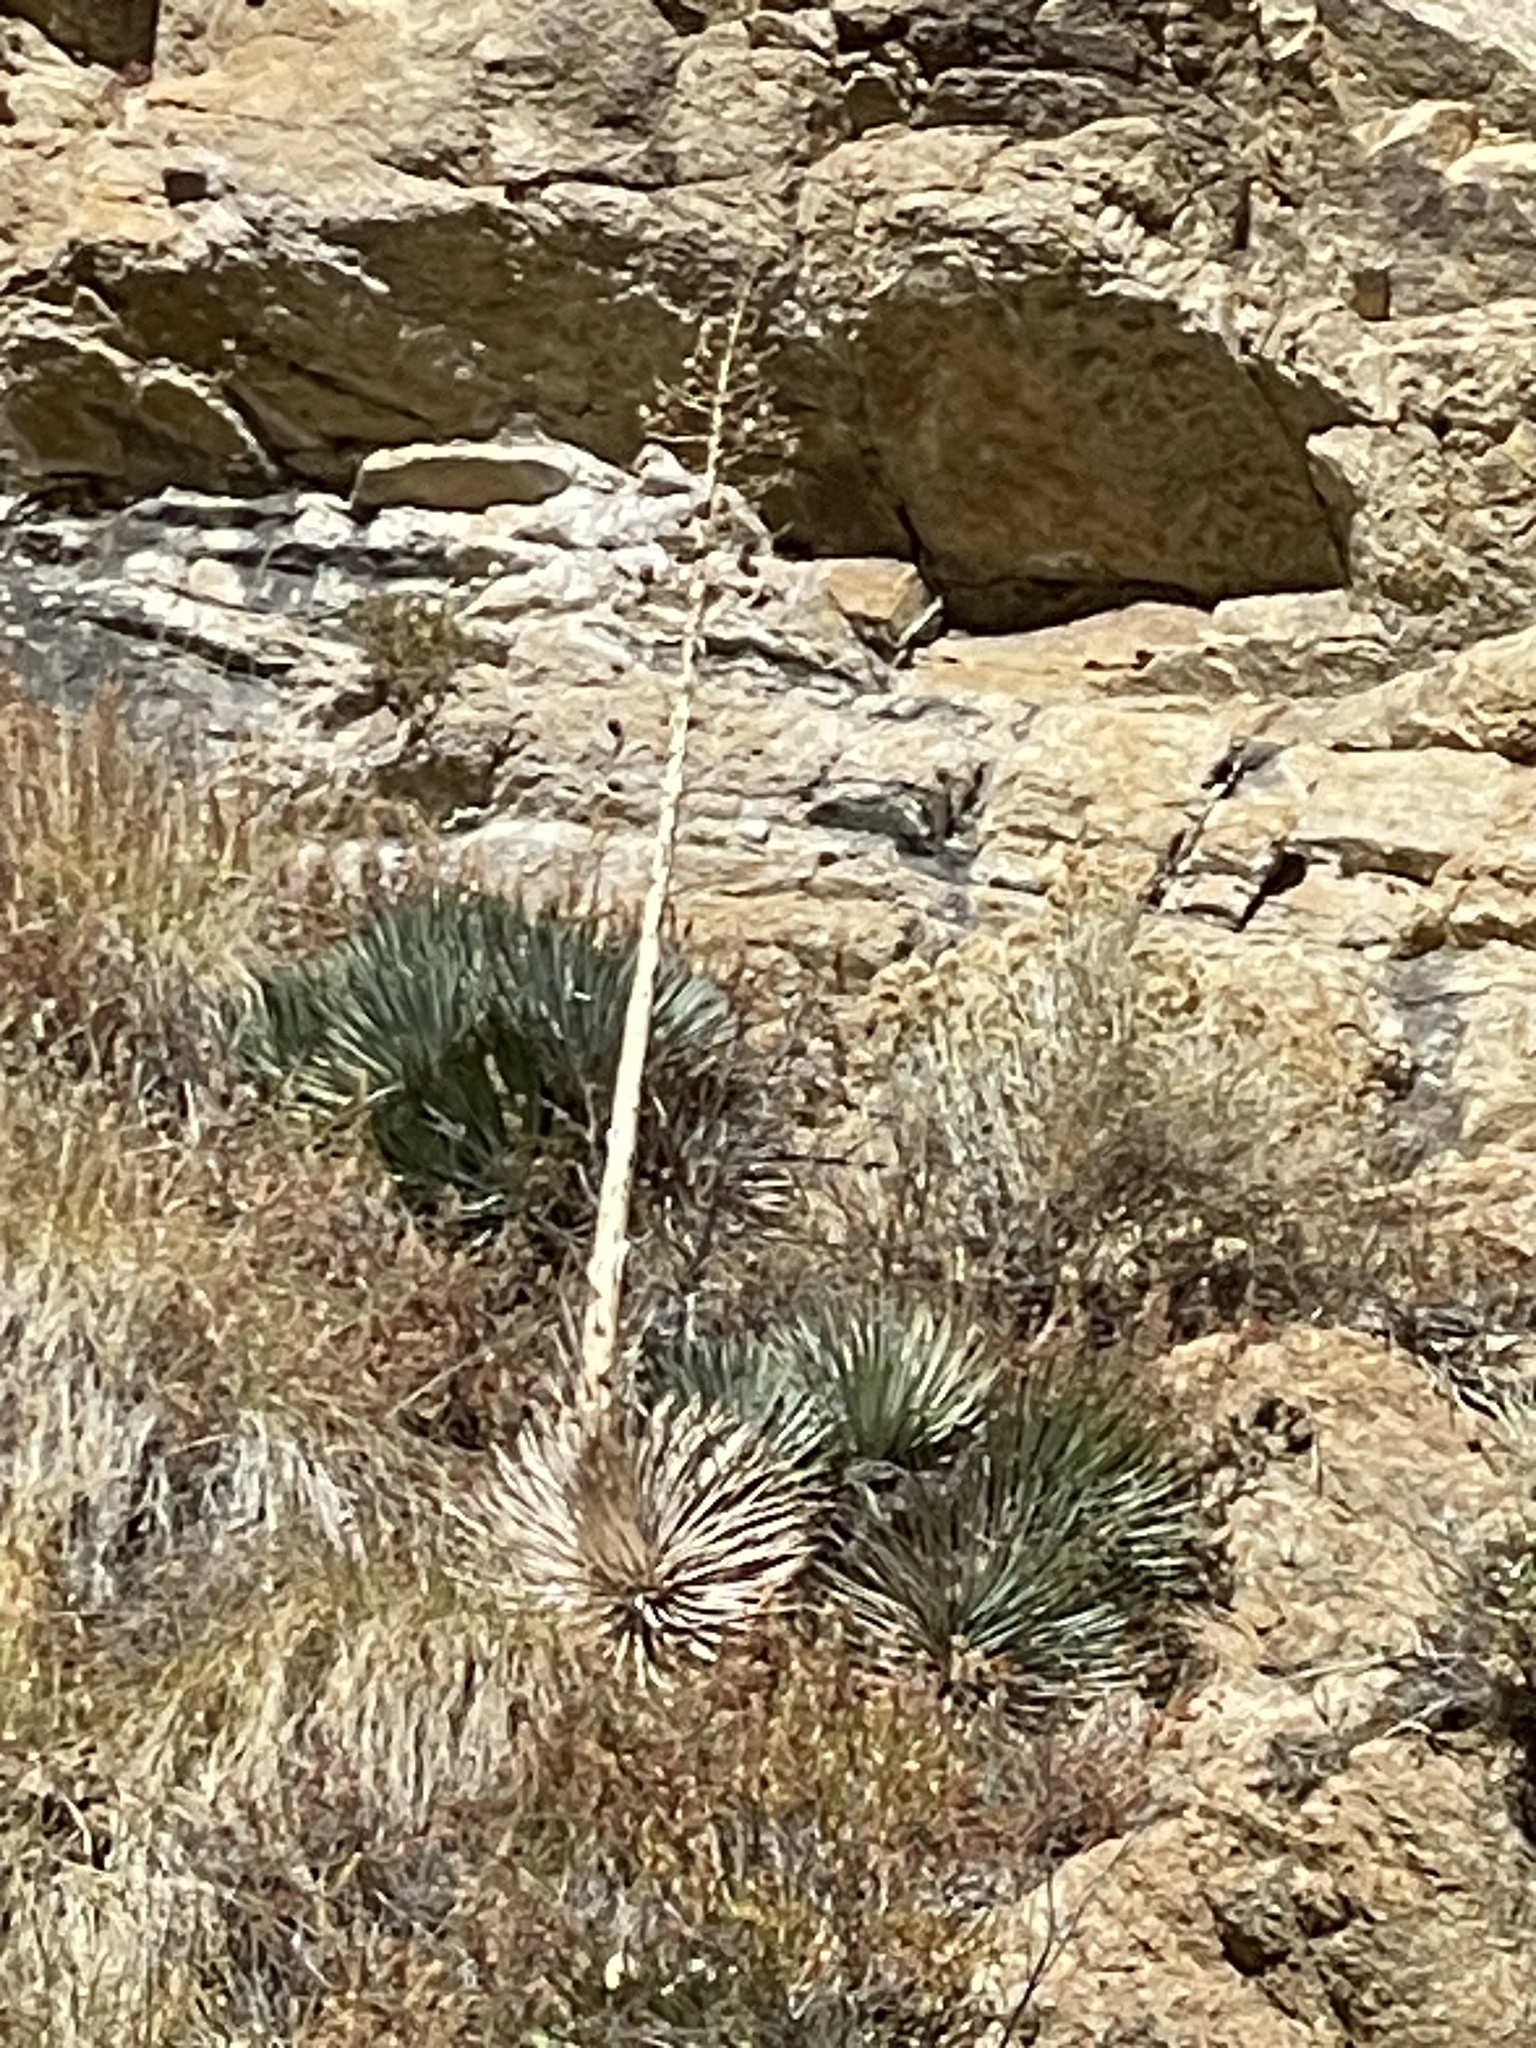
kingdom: Plantae
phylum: Tracheophyta
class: Liliopsida
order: Asparagales
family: Asparagaceae
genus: Hesperoyucca
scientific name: Hesperoyucca whipplei
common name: Our lord's-candle
